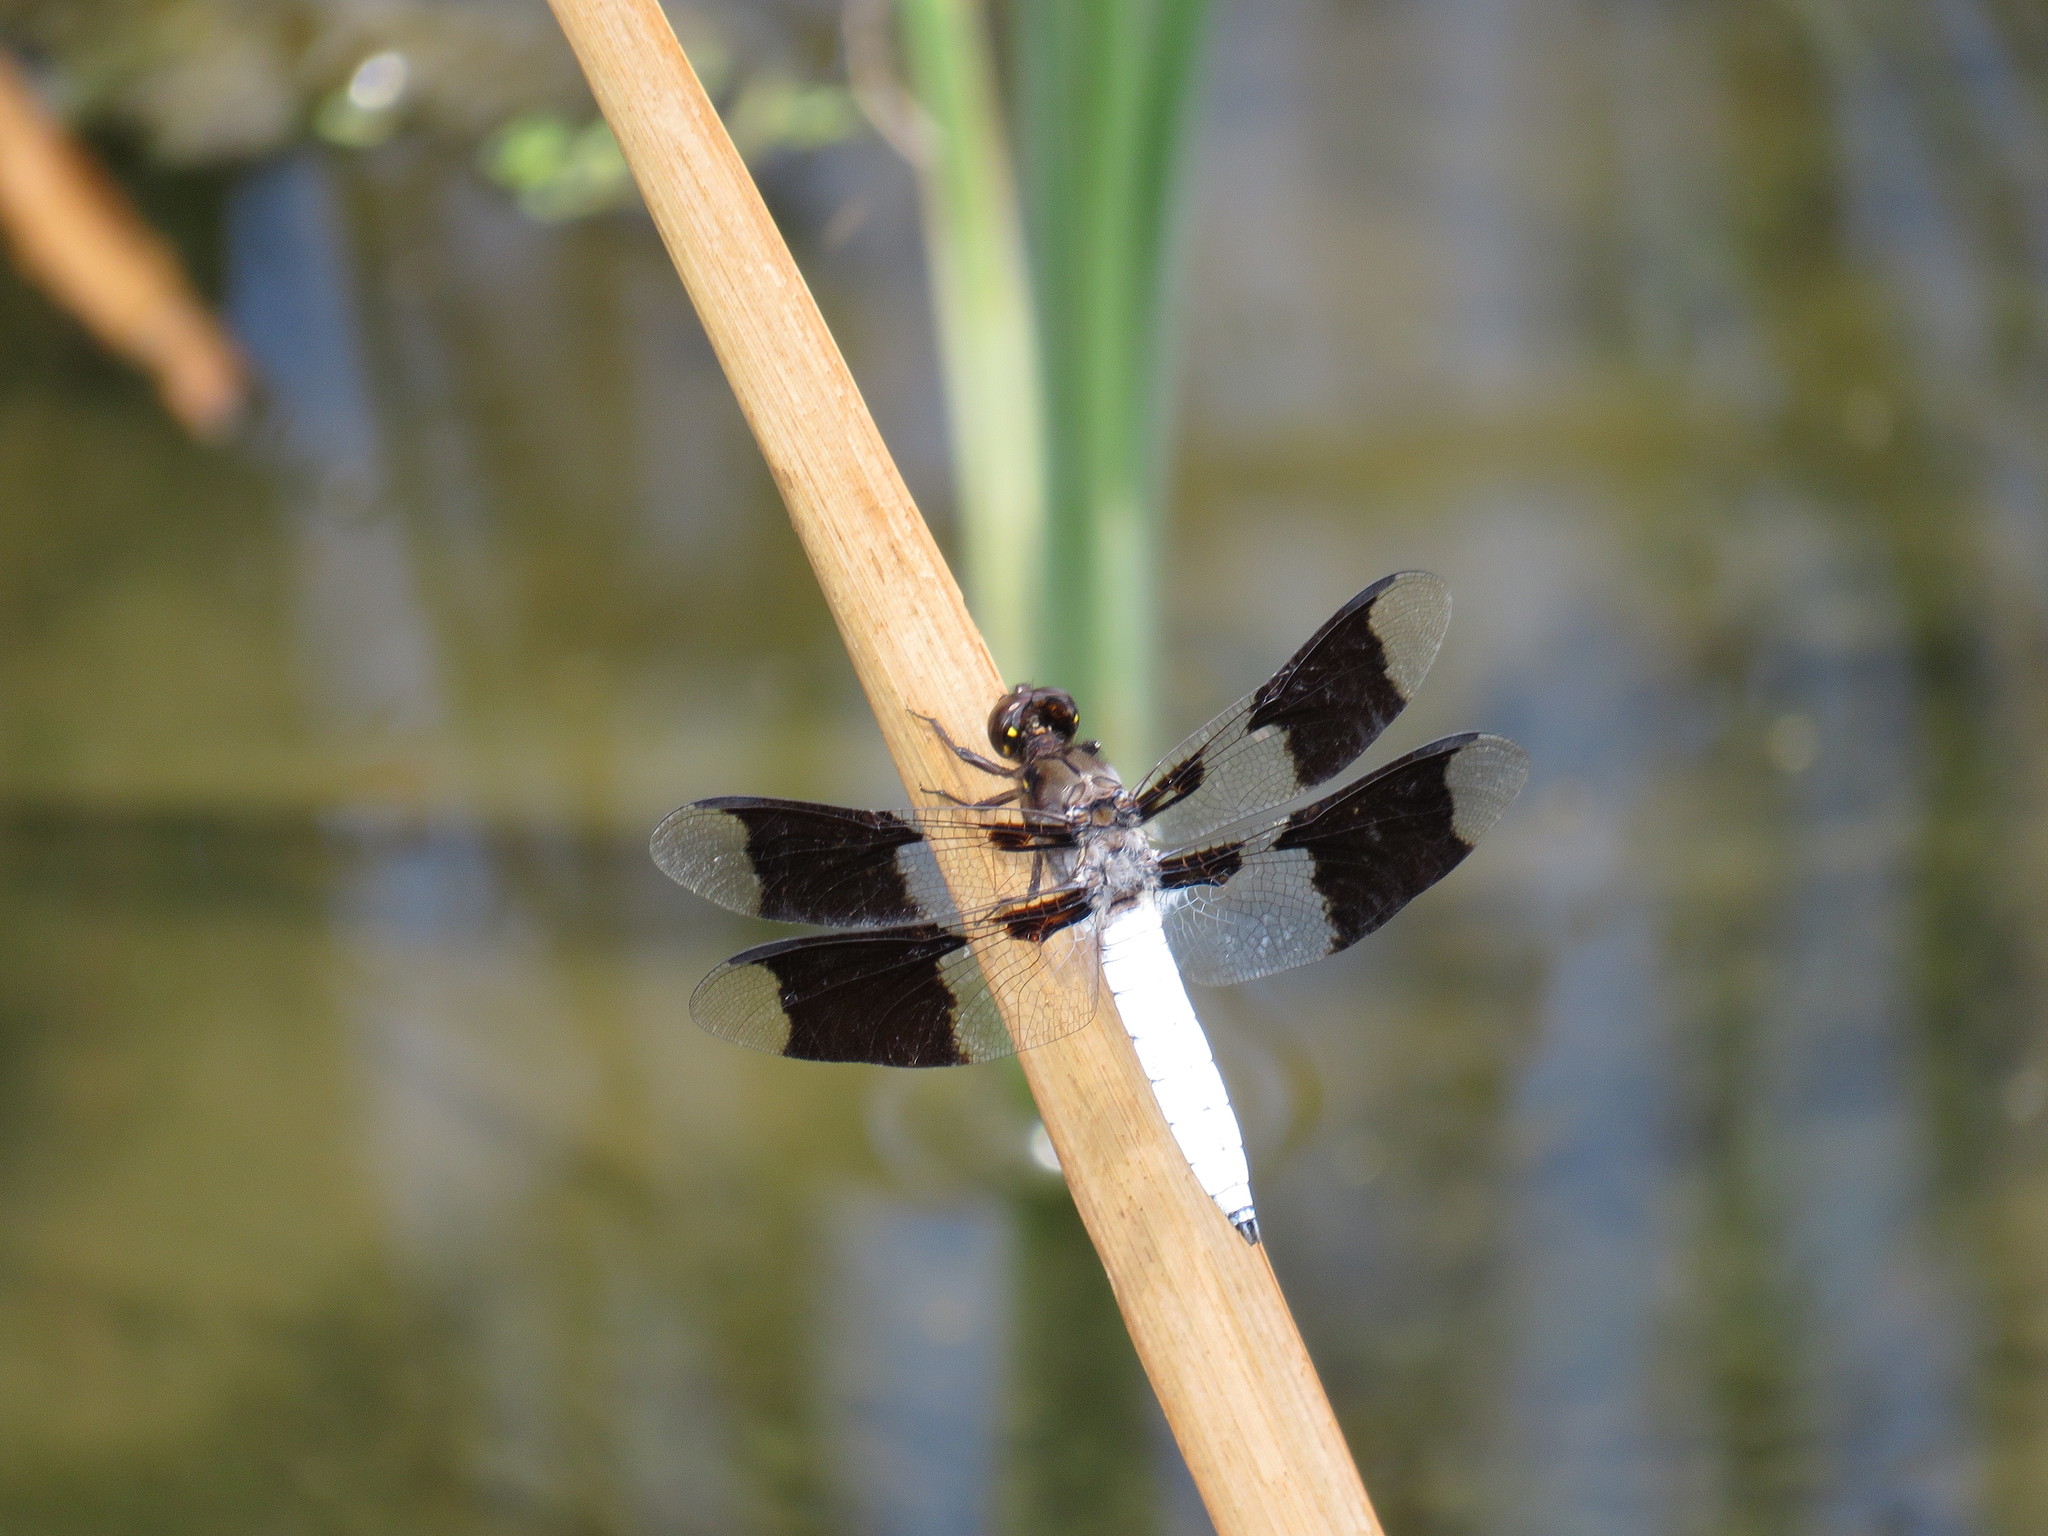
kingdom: Animalia
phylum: Arthropoda
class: Insecta
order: Odonata
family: Libellulidae
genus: Plathemis
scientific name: Plathemis lydia
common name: Common whitetail
